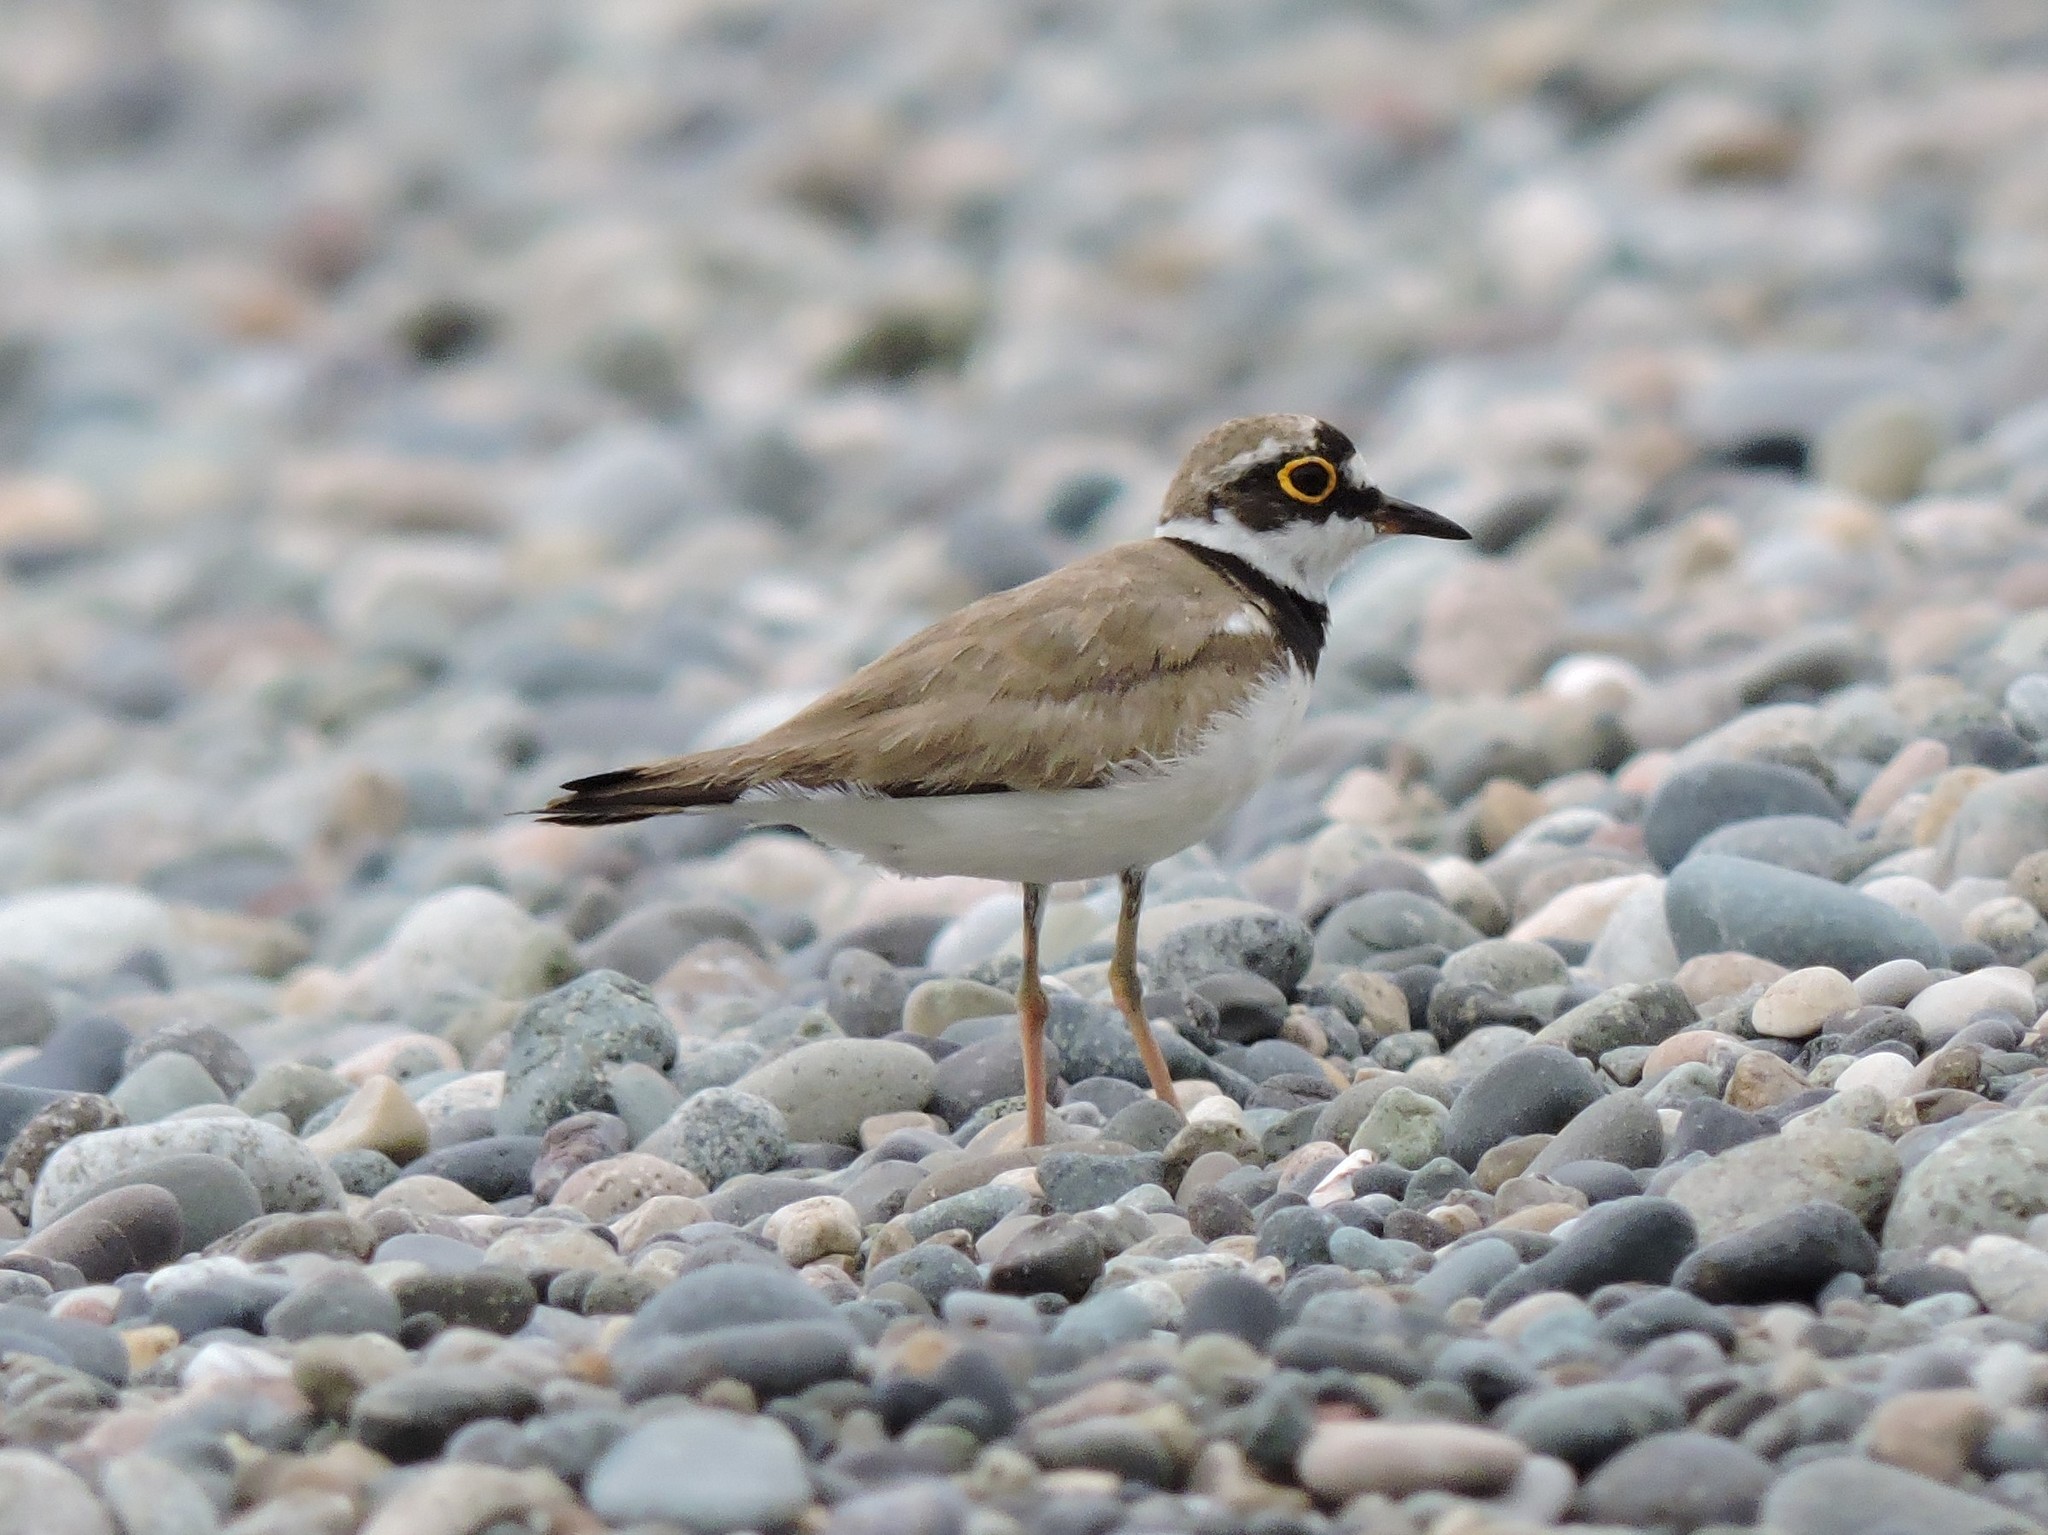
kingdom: Animalia
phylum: Chordata
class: Aves
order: Charadriiformes
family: Charadriidae
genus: Charadrius
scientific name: Charadrius dubius
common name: Little ringed plover
